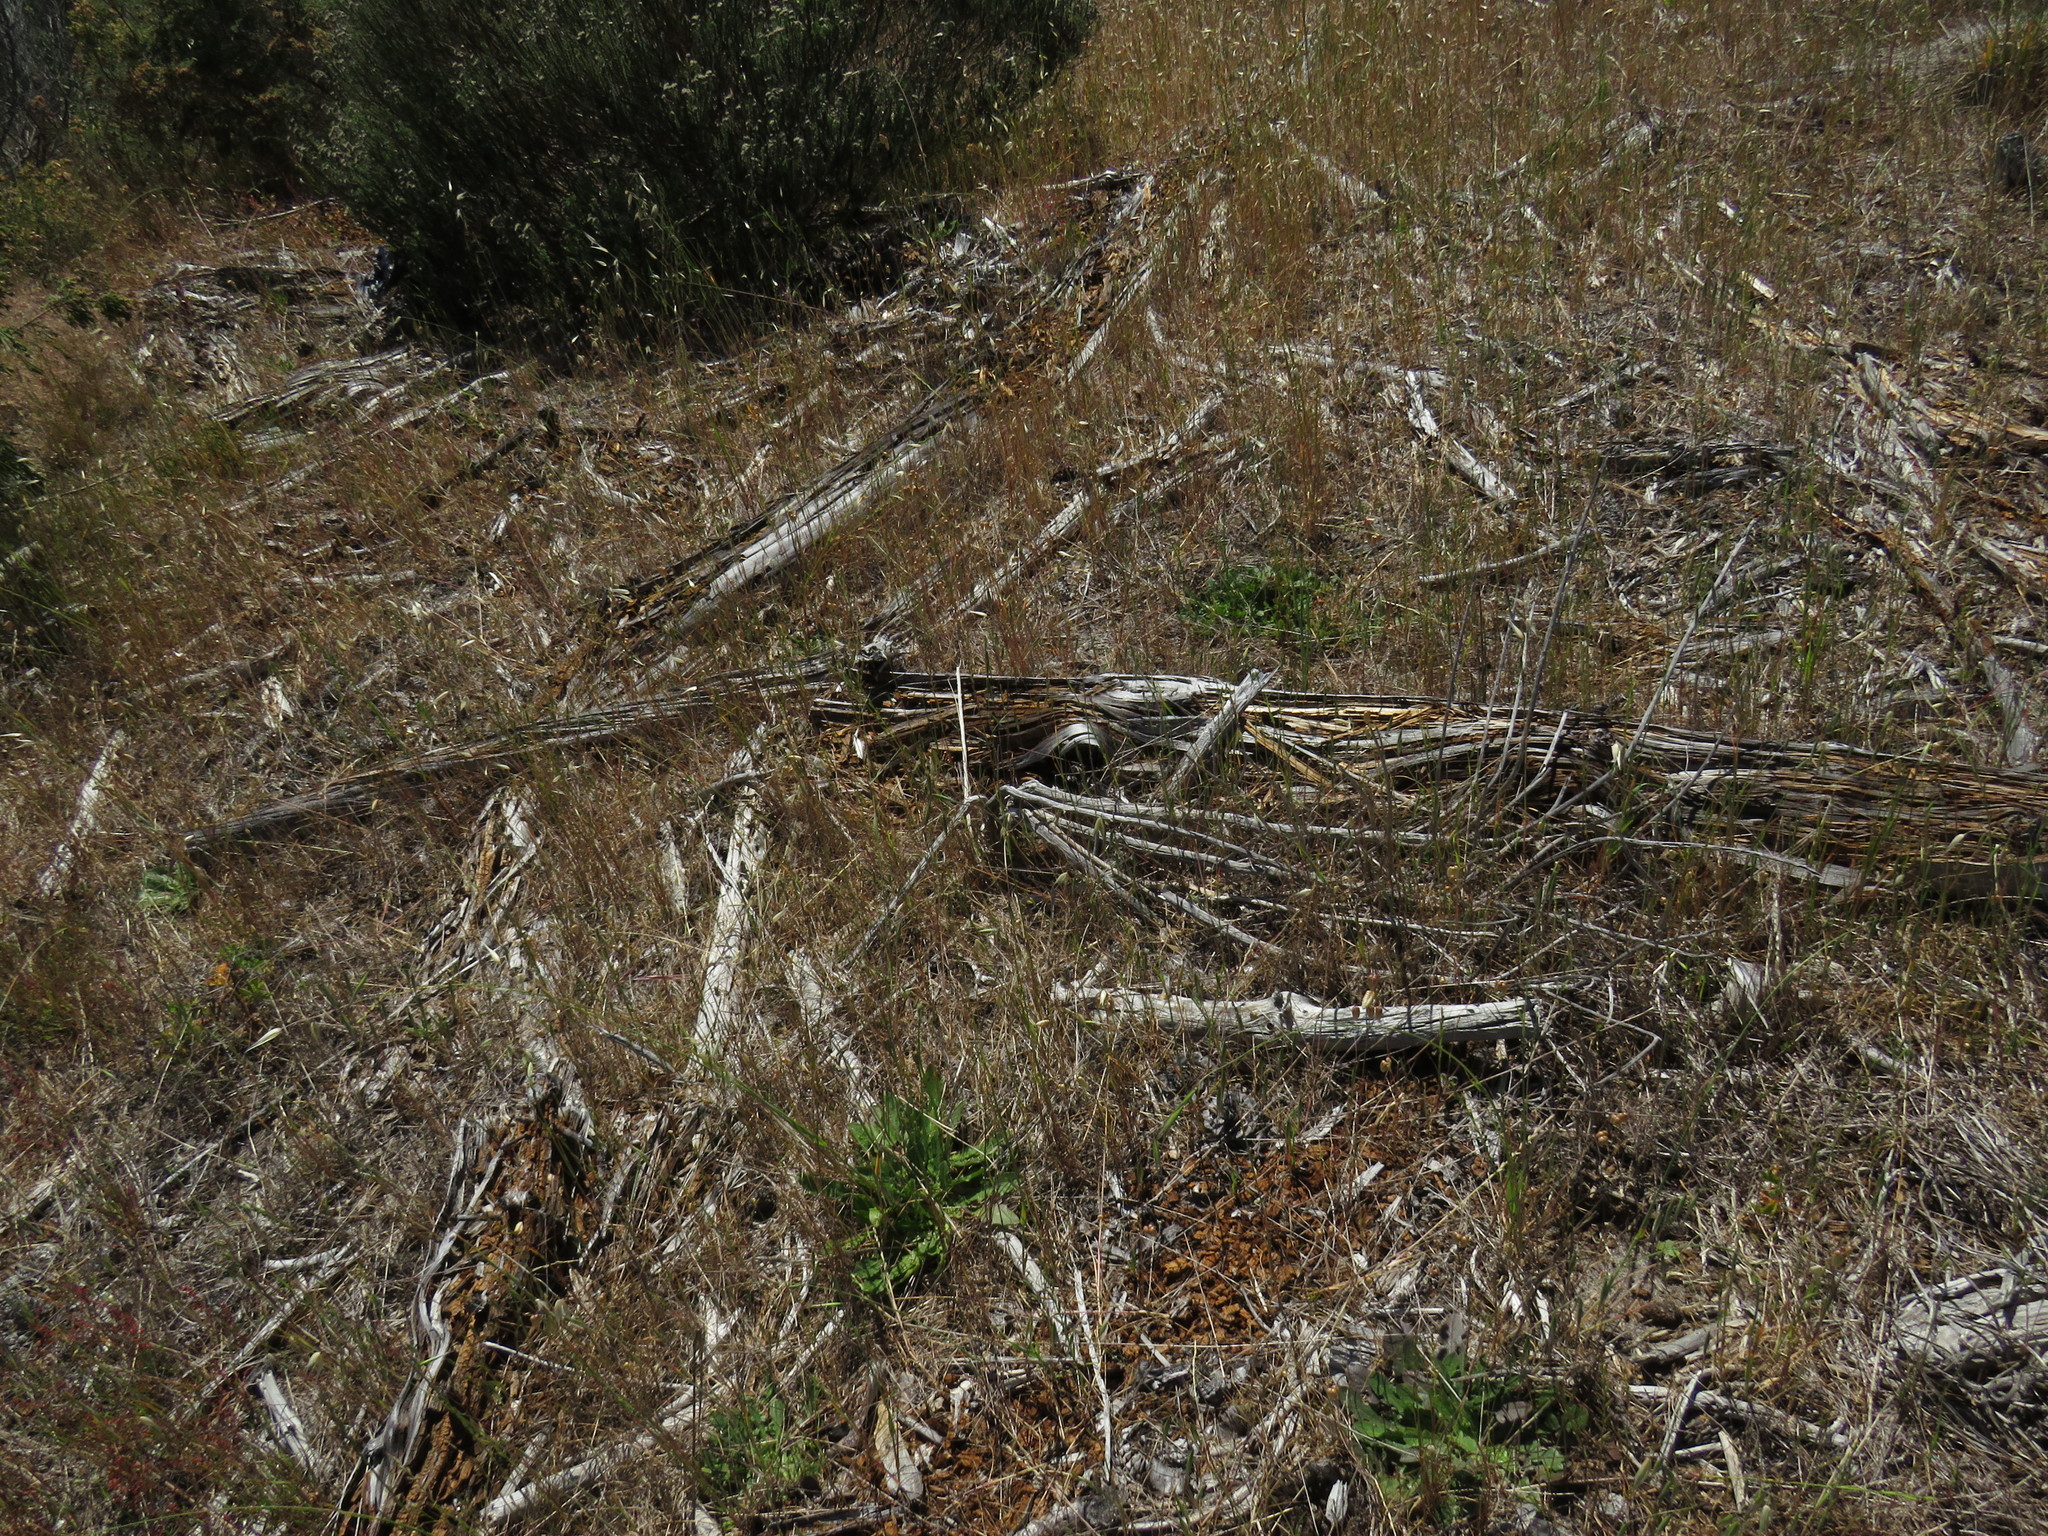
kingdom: Plantae
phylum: Tracheophyta
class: Liliopsida
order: Poales
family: Poaceae
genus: Avena
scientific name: Avena fatua
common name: Wild oat
